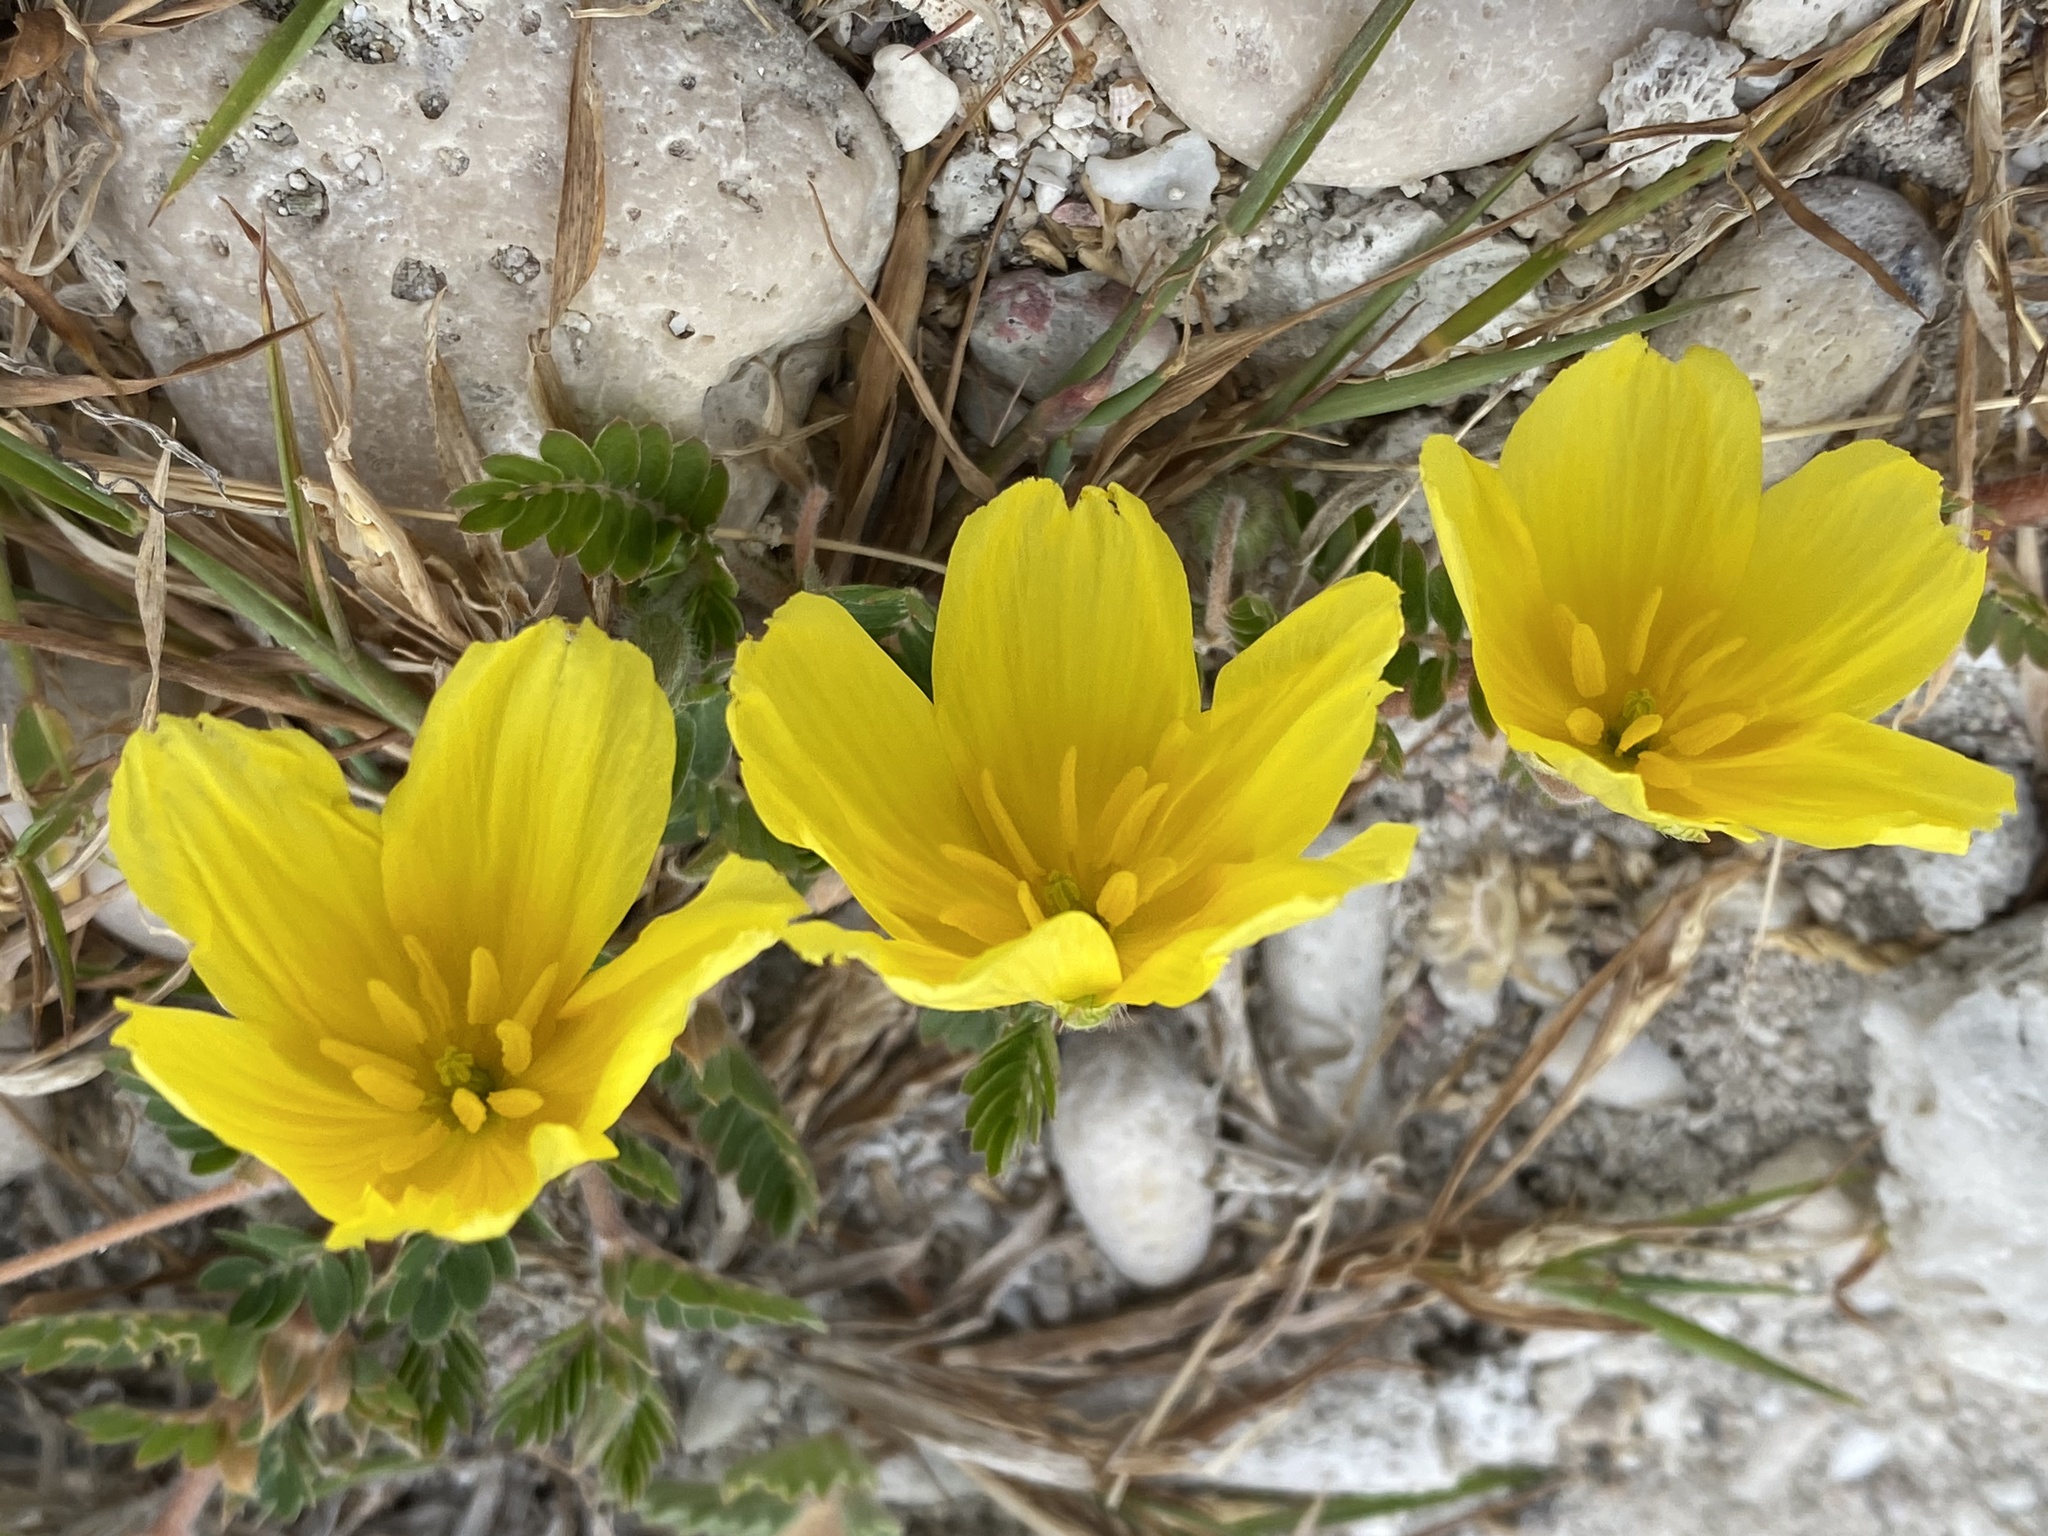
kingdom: Plantae
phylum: Tracheophyta
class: Magnoliopsida
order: Zygophyllales
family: Zygophyllaceae
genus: Tribulus
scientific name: Tribulus cistoides
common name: Jamaican feverplant
